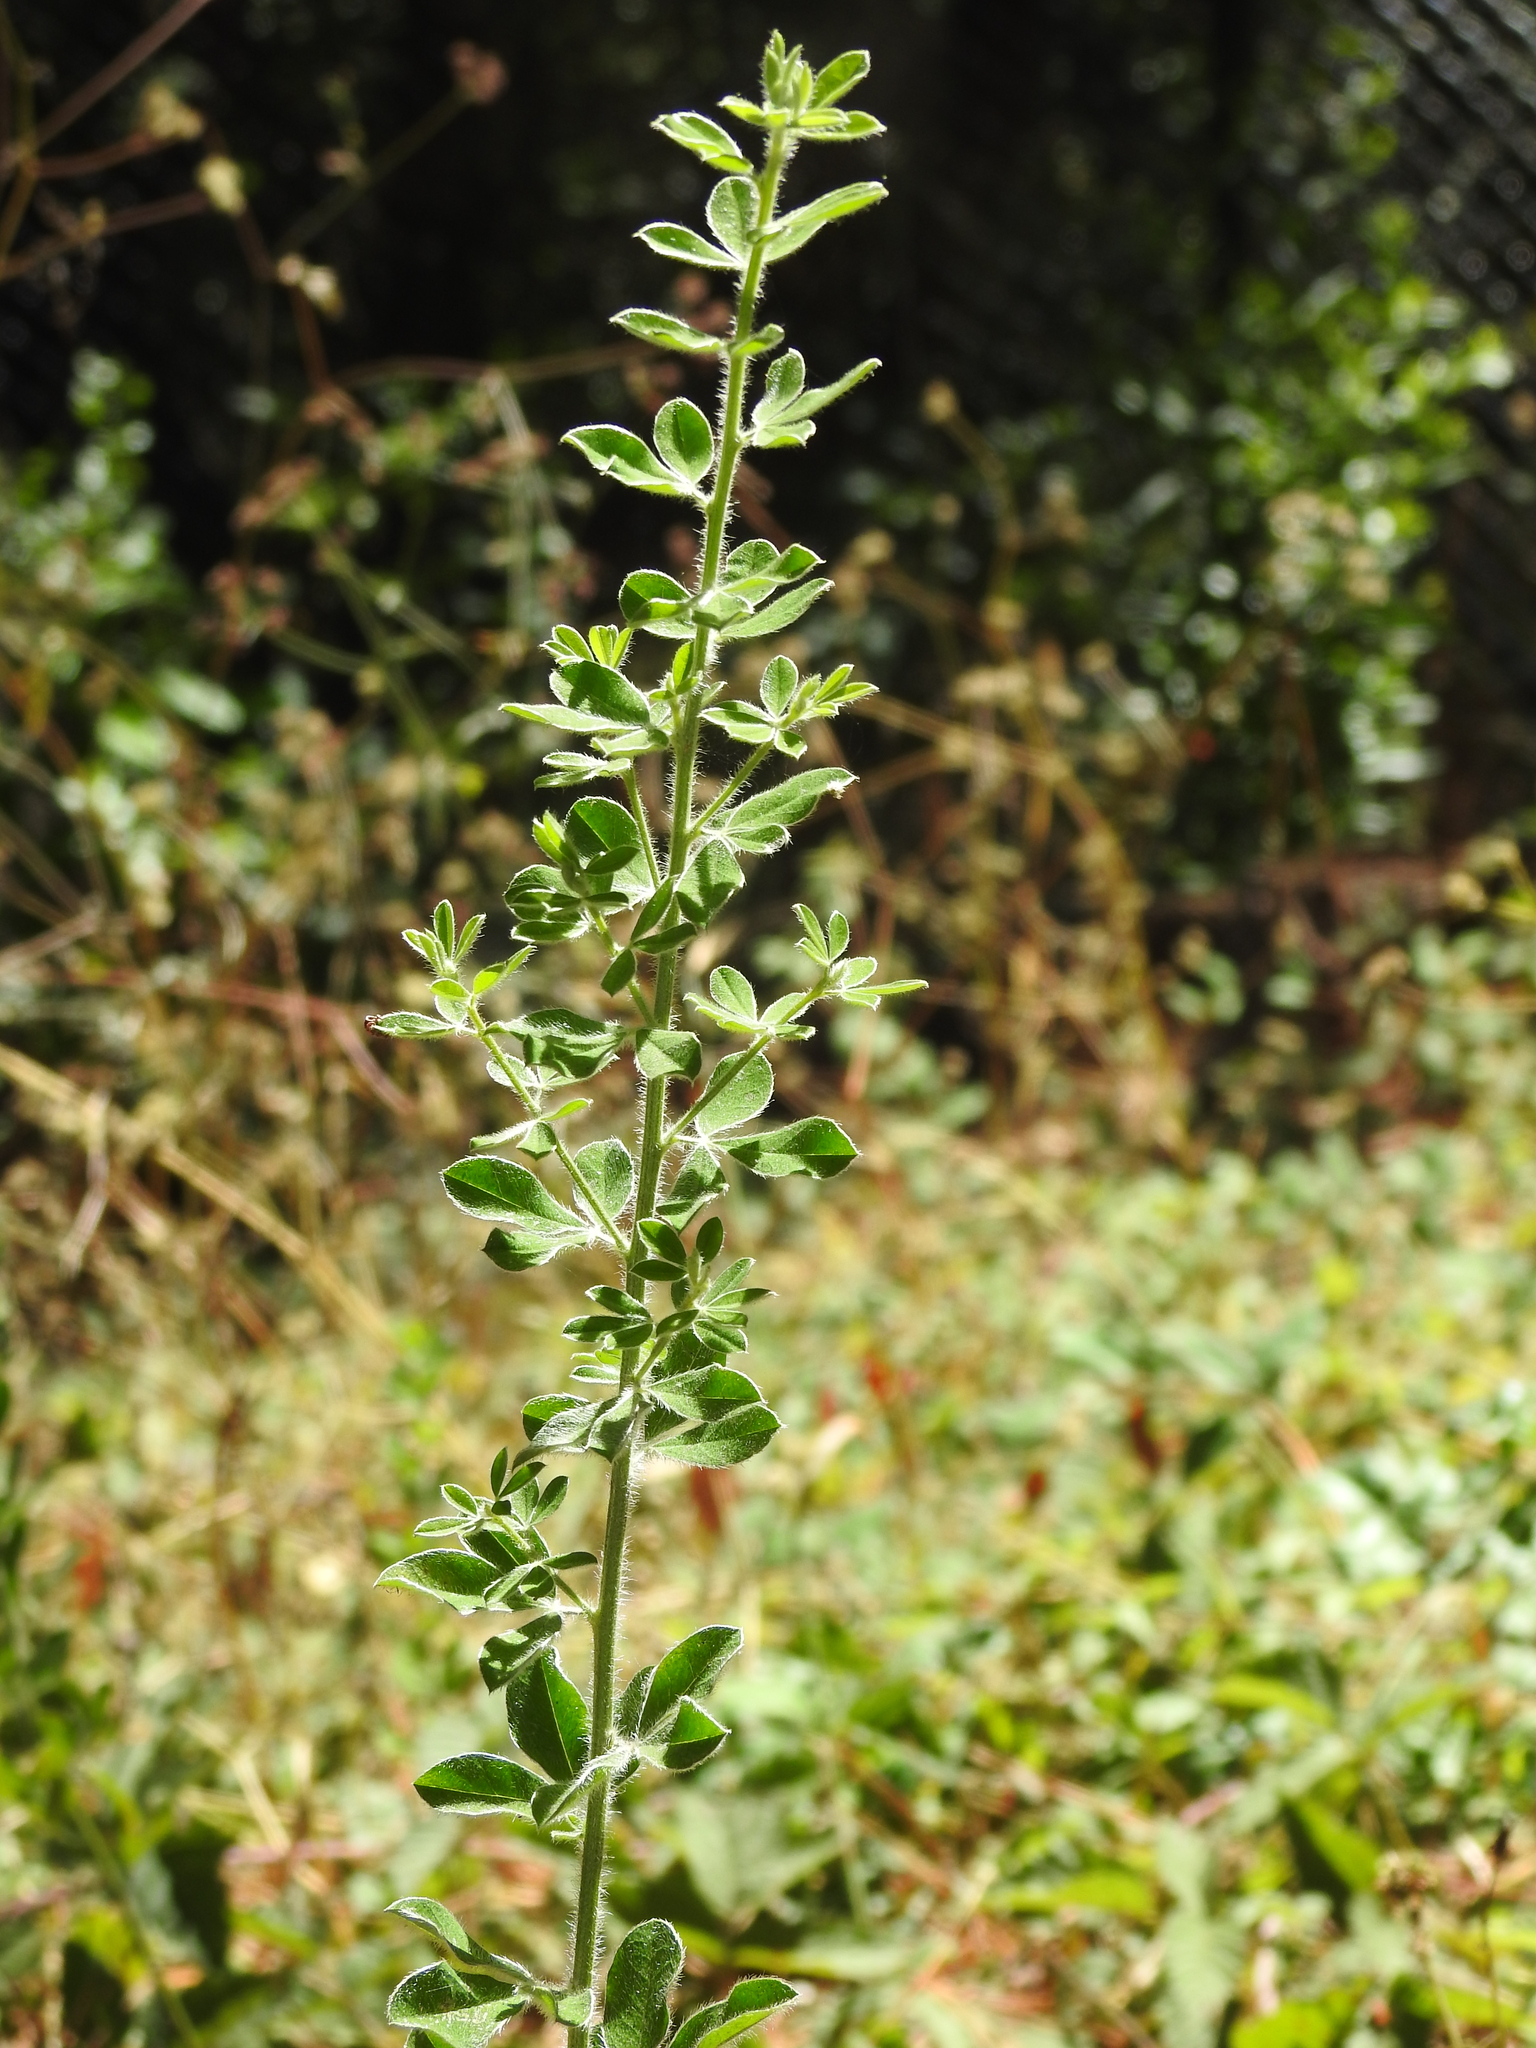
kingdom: Plantae
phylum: Tracheophyta
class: Magnoliopsida
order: Fabales
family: Fabaceae
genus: Genista
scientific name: Genista monspessulana
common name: Montpellier broom
